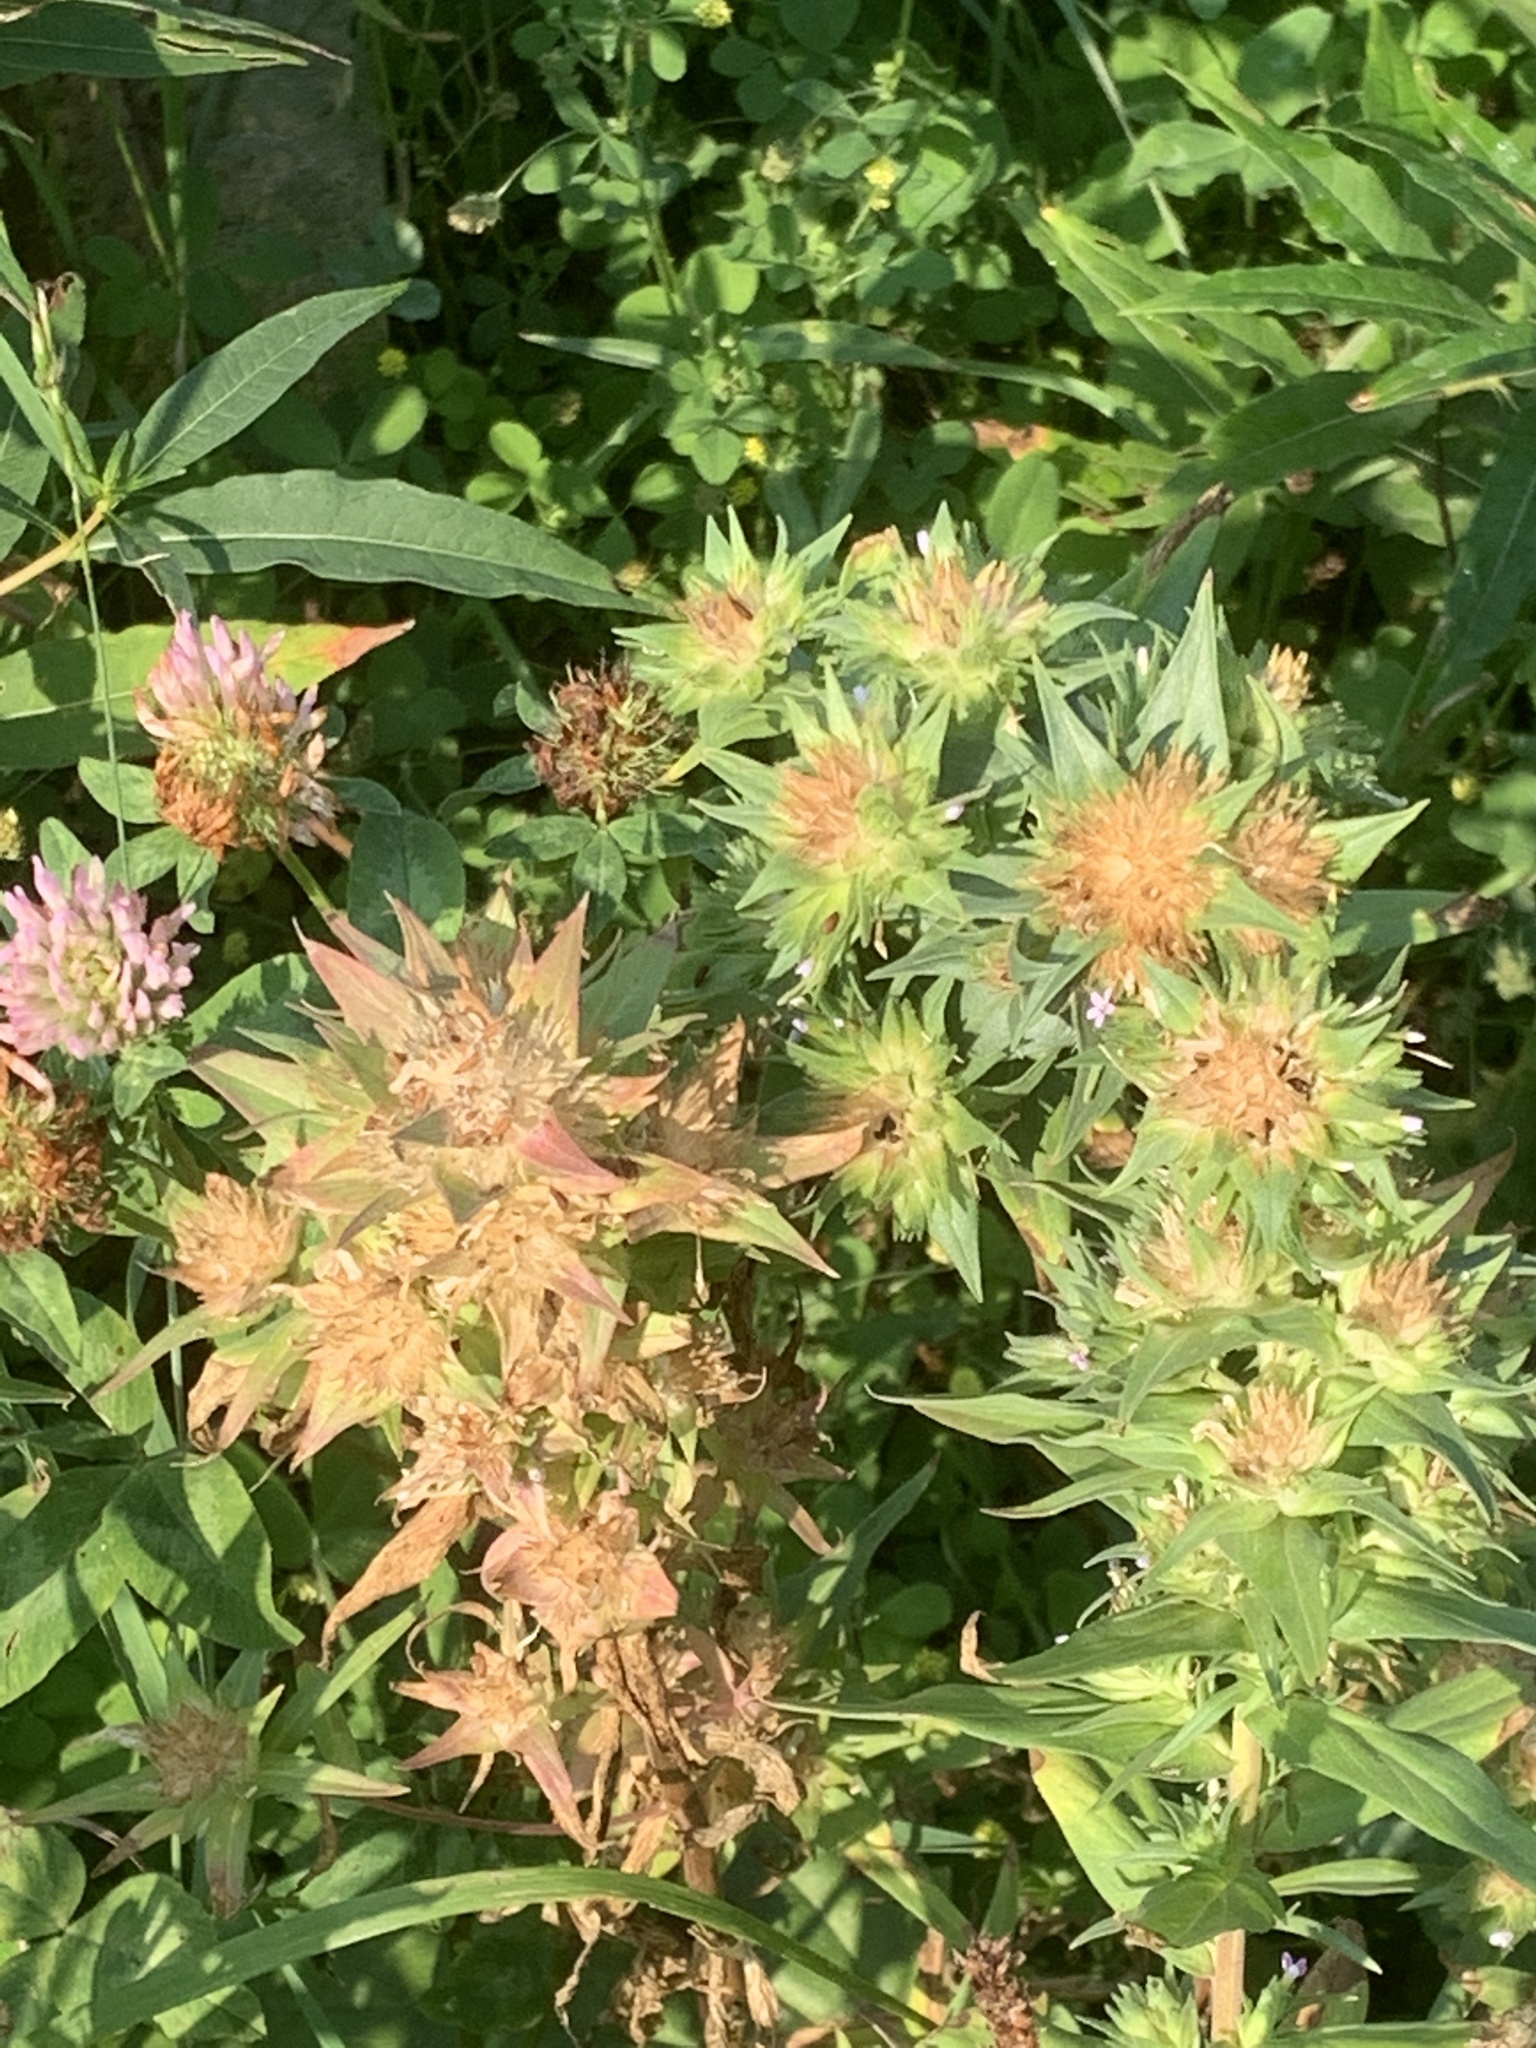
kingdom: Plantae
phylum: Tracheophyta
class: Magnoliopsida
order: Ericales
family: Polemoniaceae
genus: Collomia
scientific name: Collomia linearis
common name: Tiny trumpet
